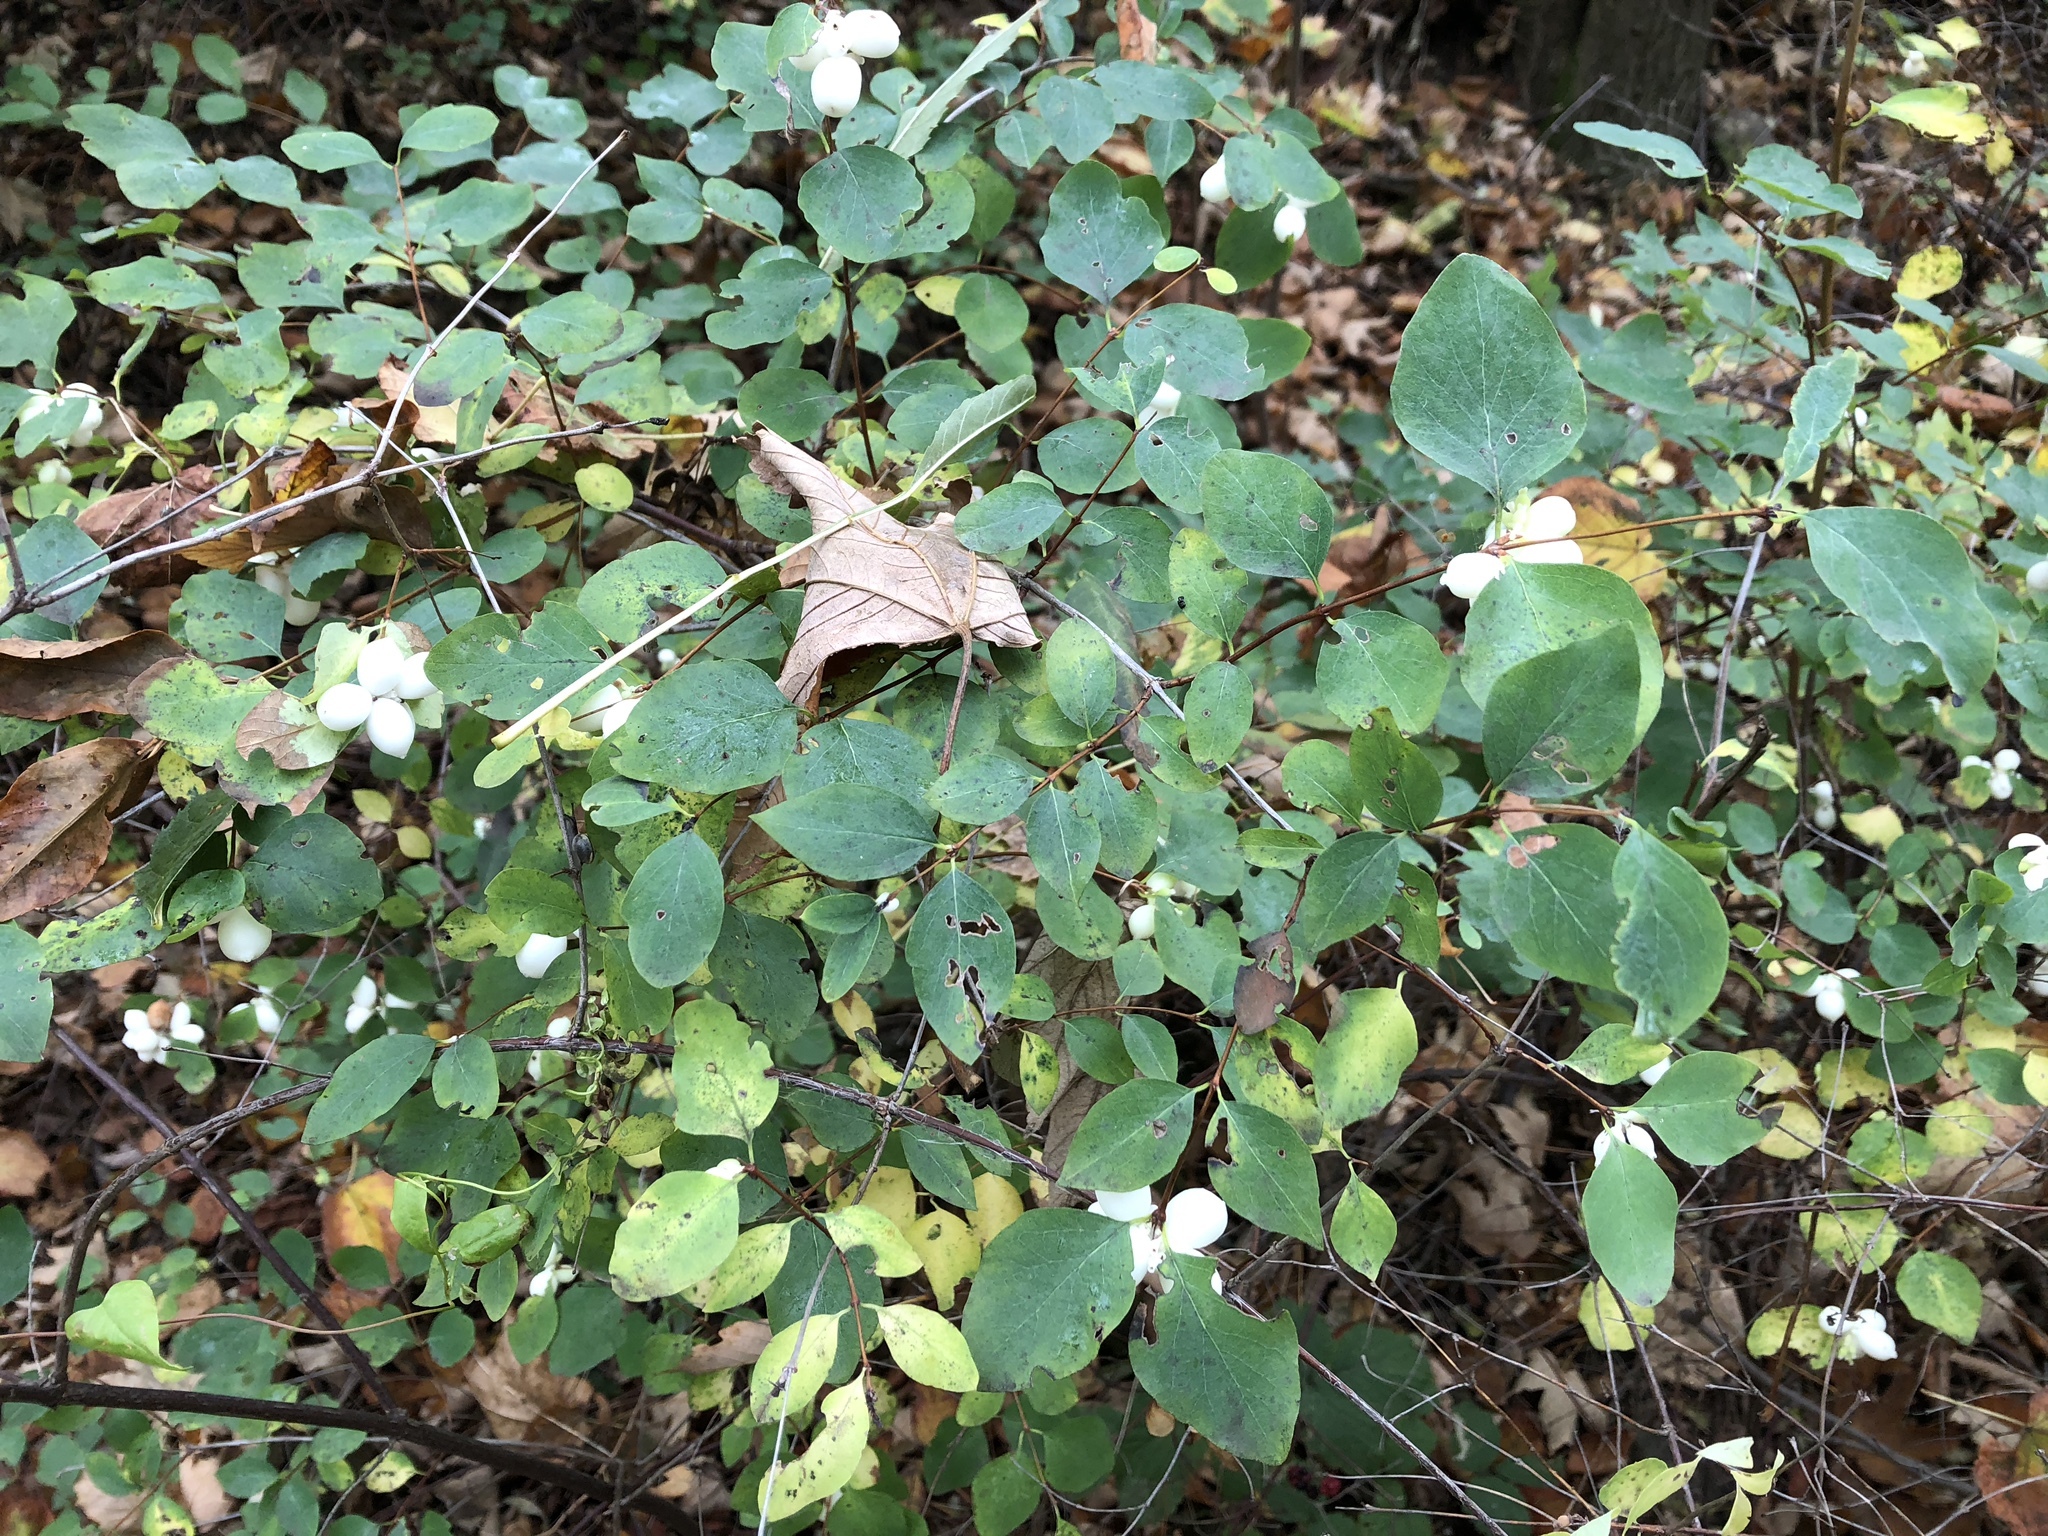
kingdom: Plantae
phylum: Tracheophyta
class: Magnoliopsida
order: Dipsacales
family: Caprifoliaceae
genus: Symphoricarpos
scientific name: Symphoricarpos albus
